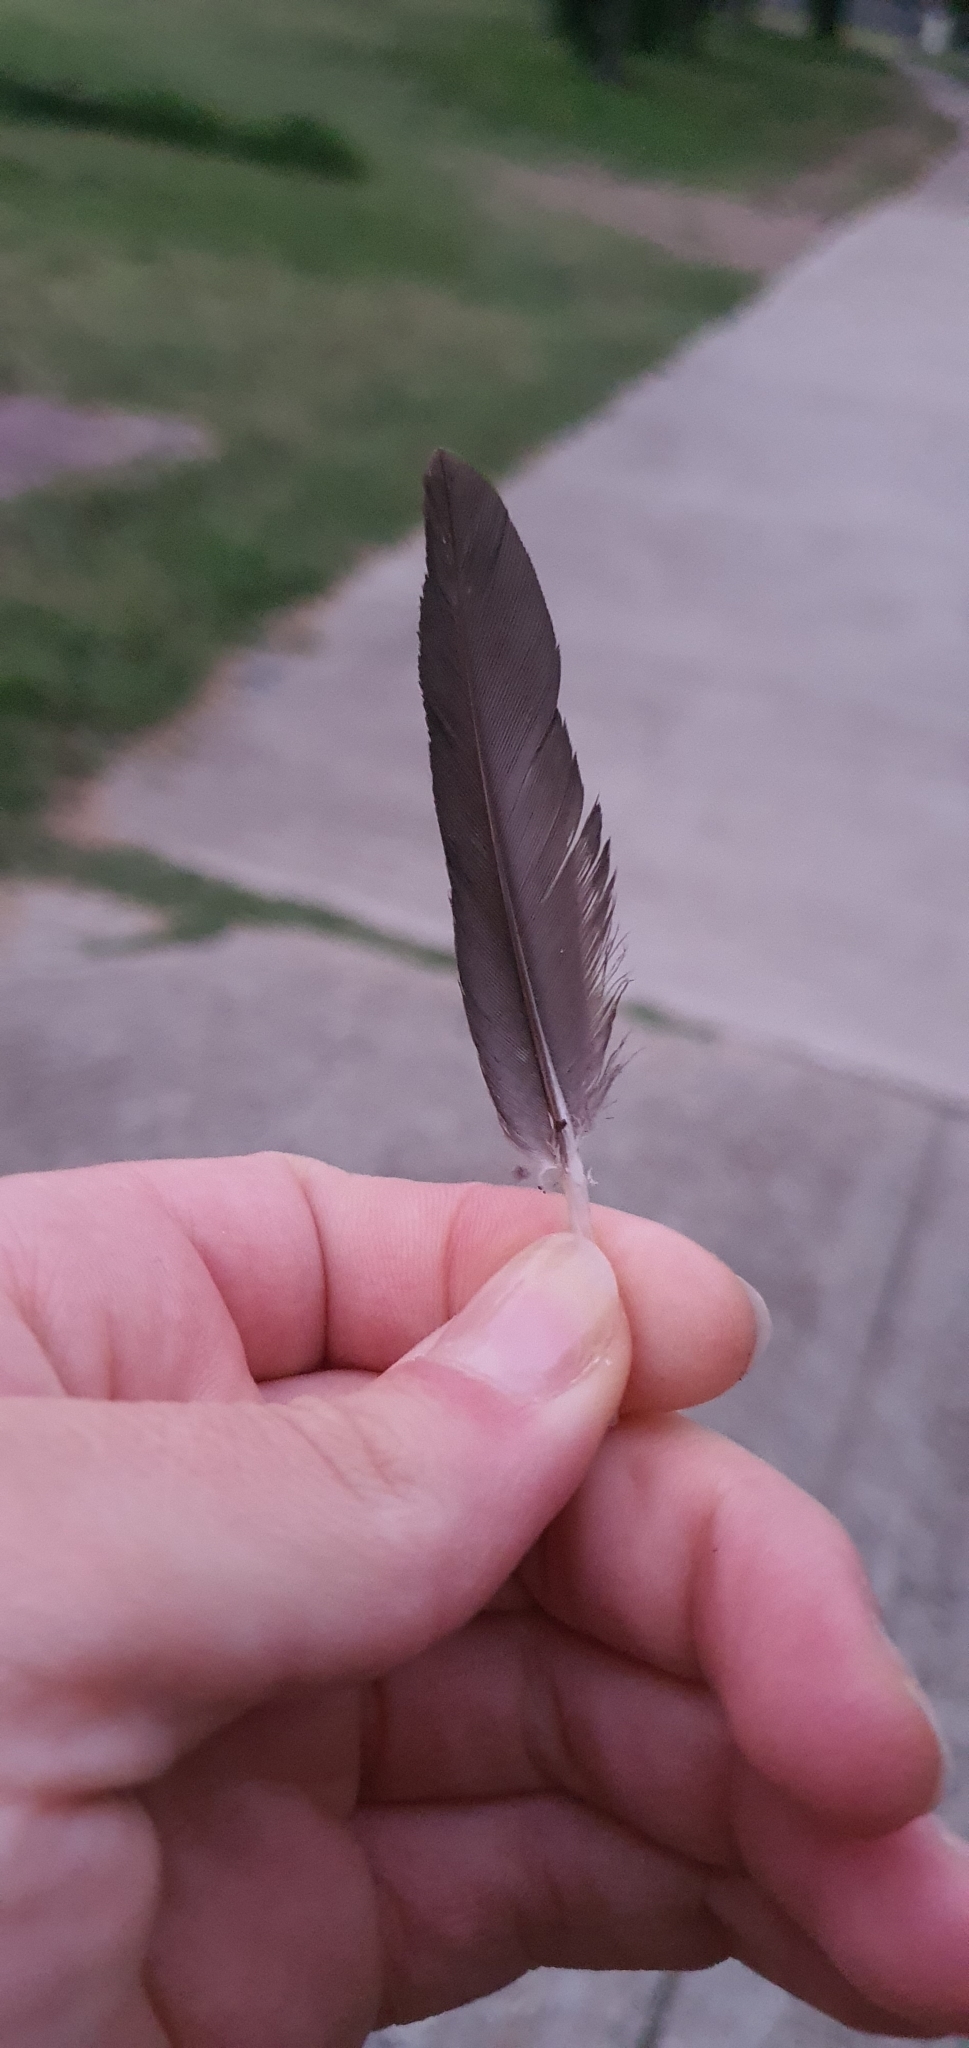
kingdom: Animalia
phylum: Chordata
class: Aves
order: Psittaciformes
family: Psittacidae
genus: Trichoglossus
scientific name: Trichoglossus haematodus
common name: Coconut lorikeet
